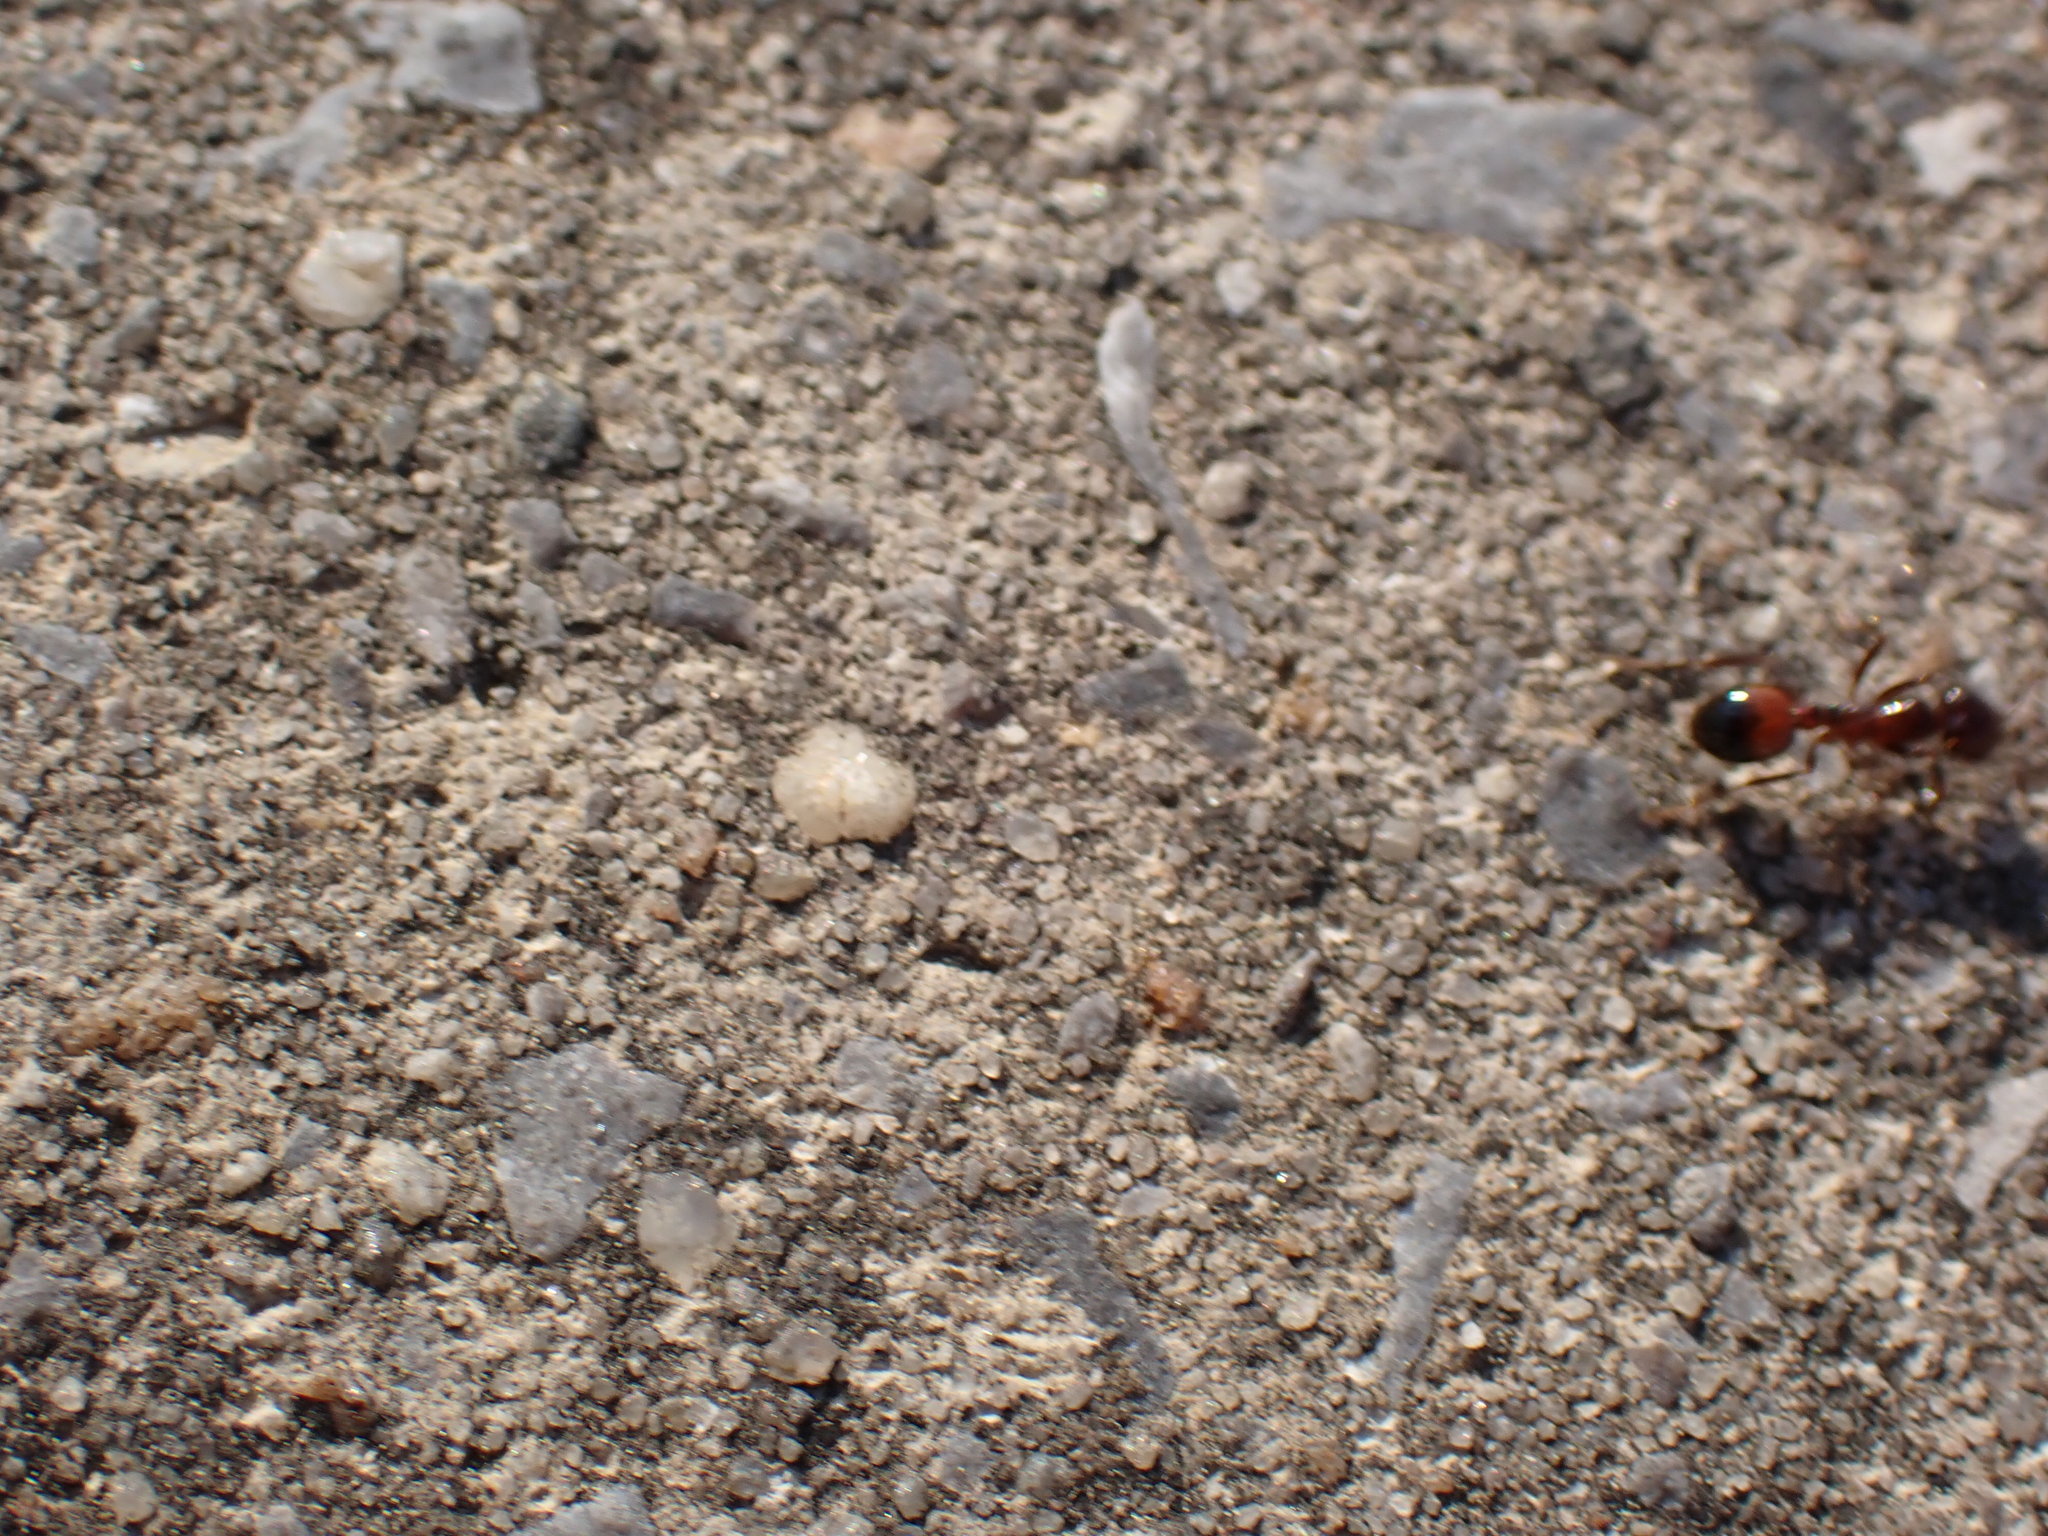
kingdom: Animalia
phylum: Arthropoda
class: Insecta
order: Hymenoptera
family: Formicidae
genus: Solenopsis
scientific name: Solenopsis
